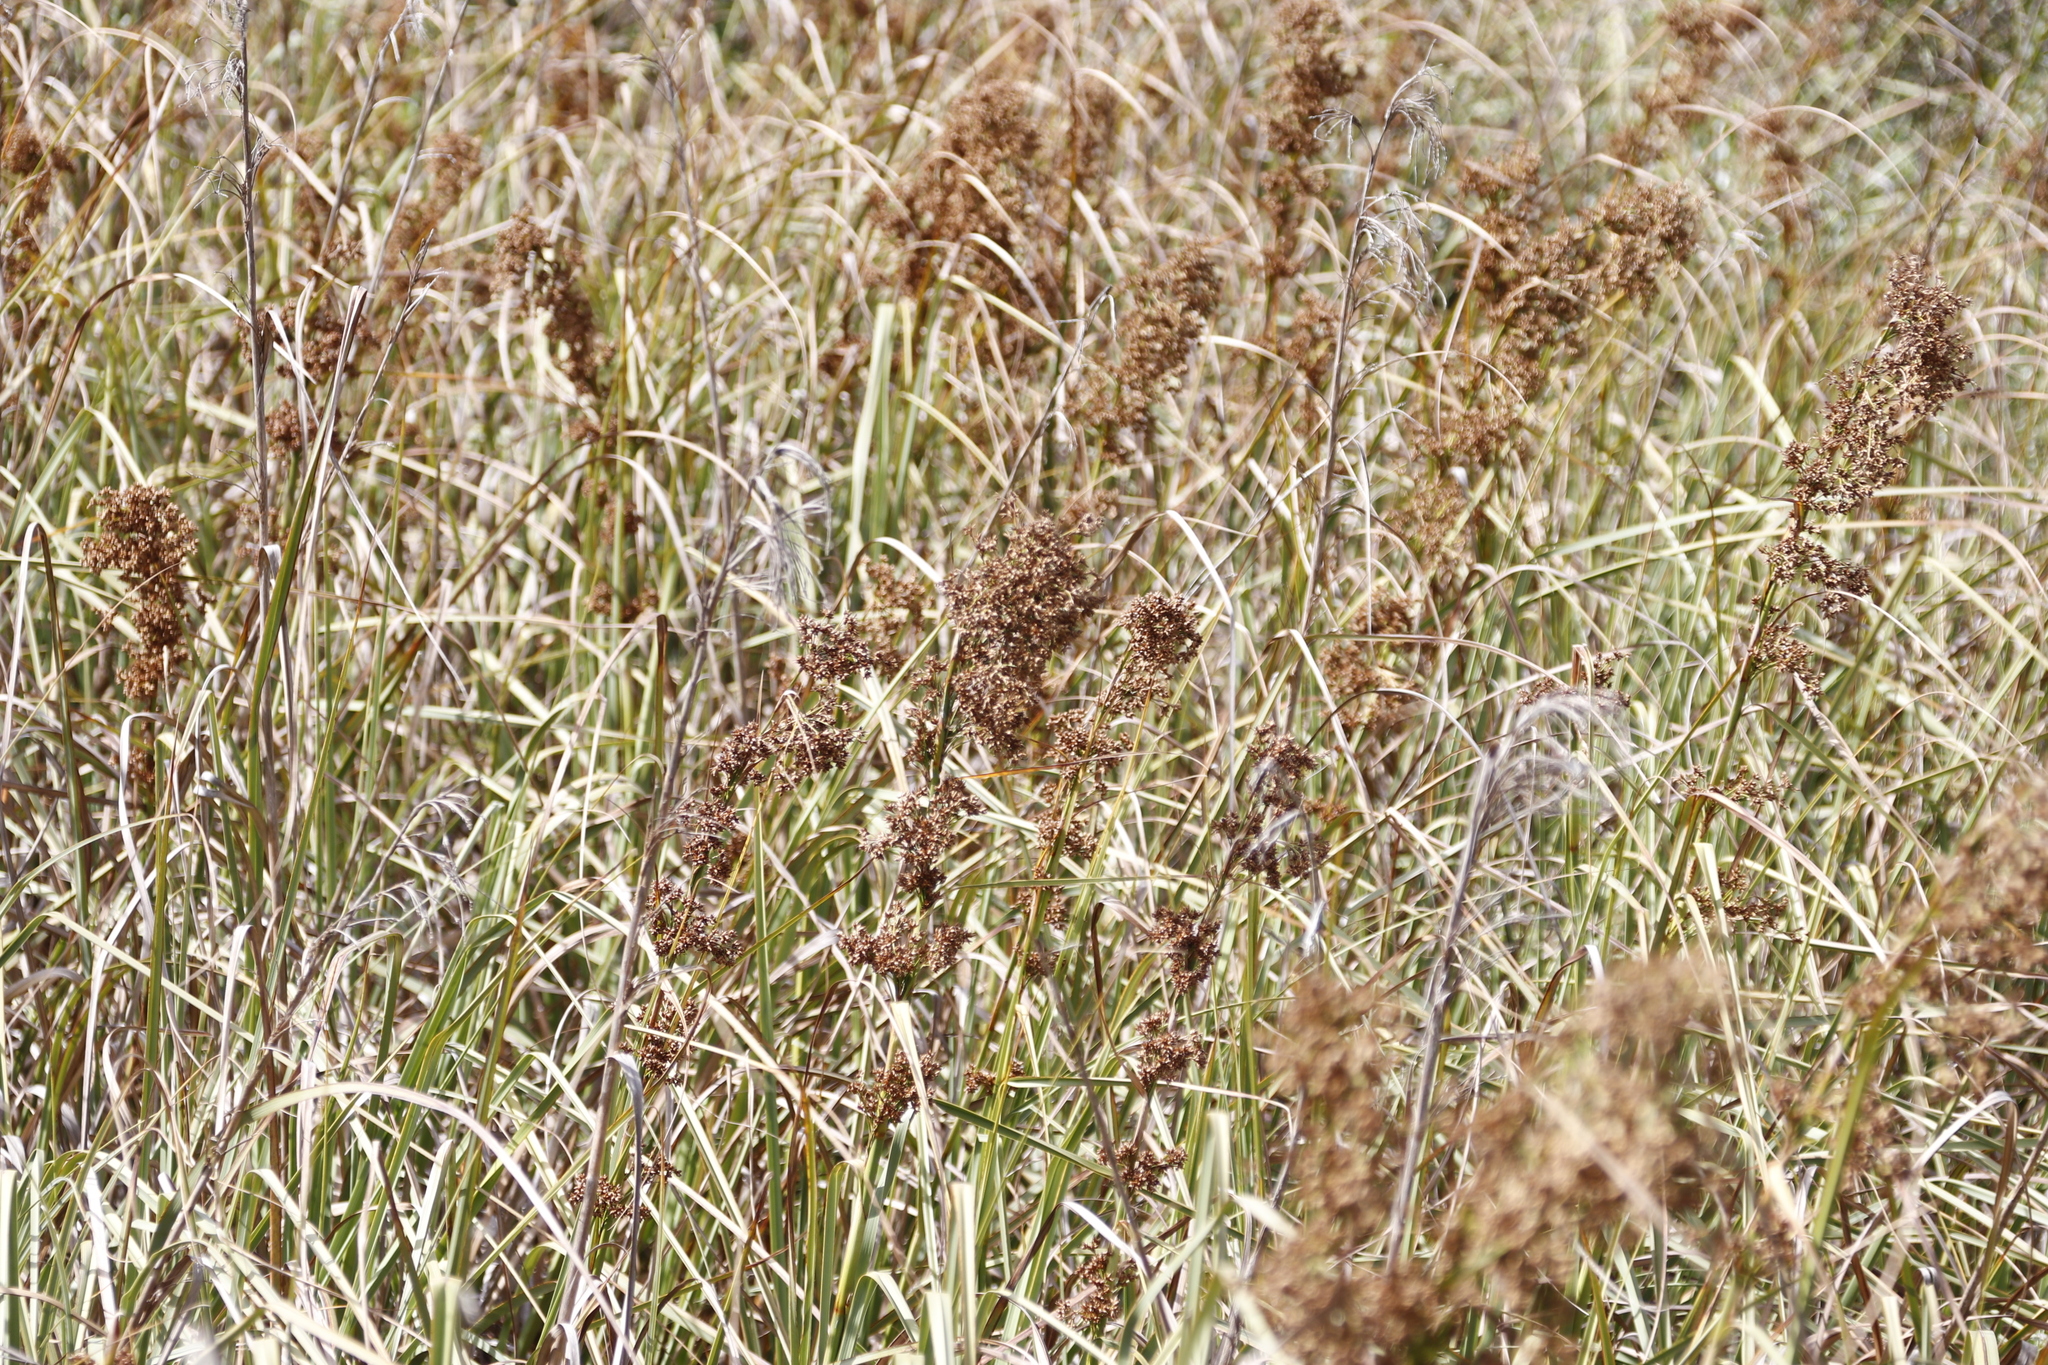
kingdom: Plantae
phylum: Tracheophyta
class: Liliopsida
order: Poales
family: Cyperaceae
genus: Cladium
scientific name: Cladium mariscus
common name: Great fen-sedge
